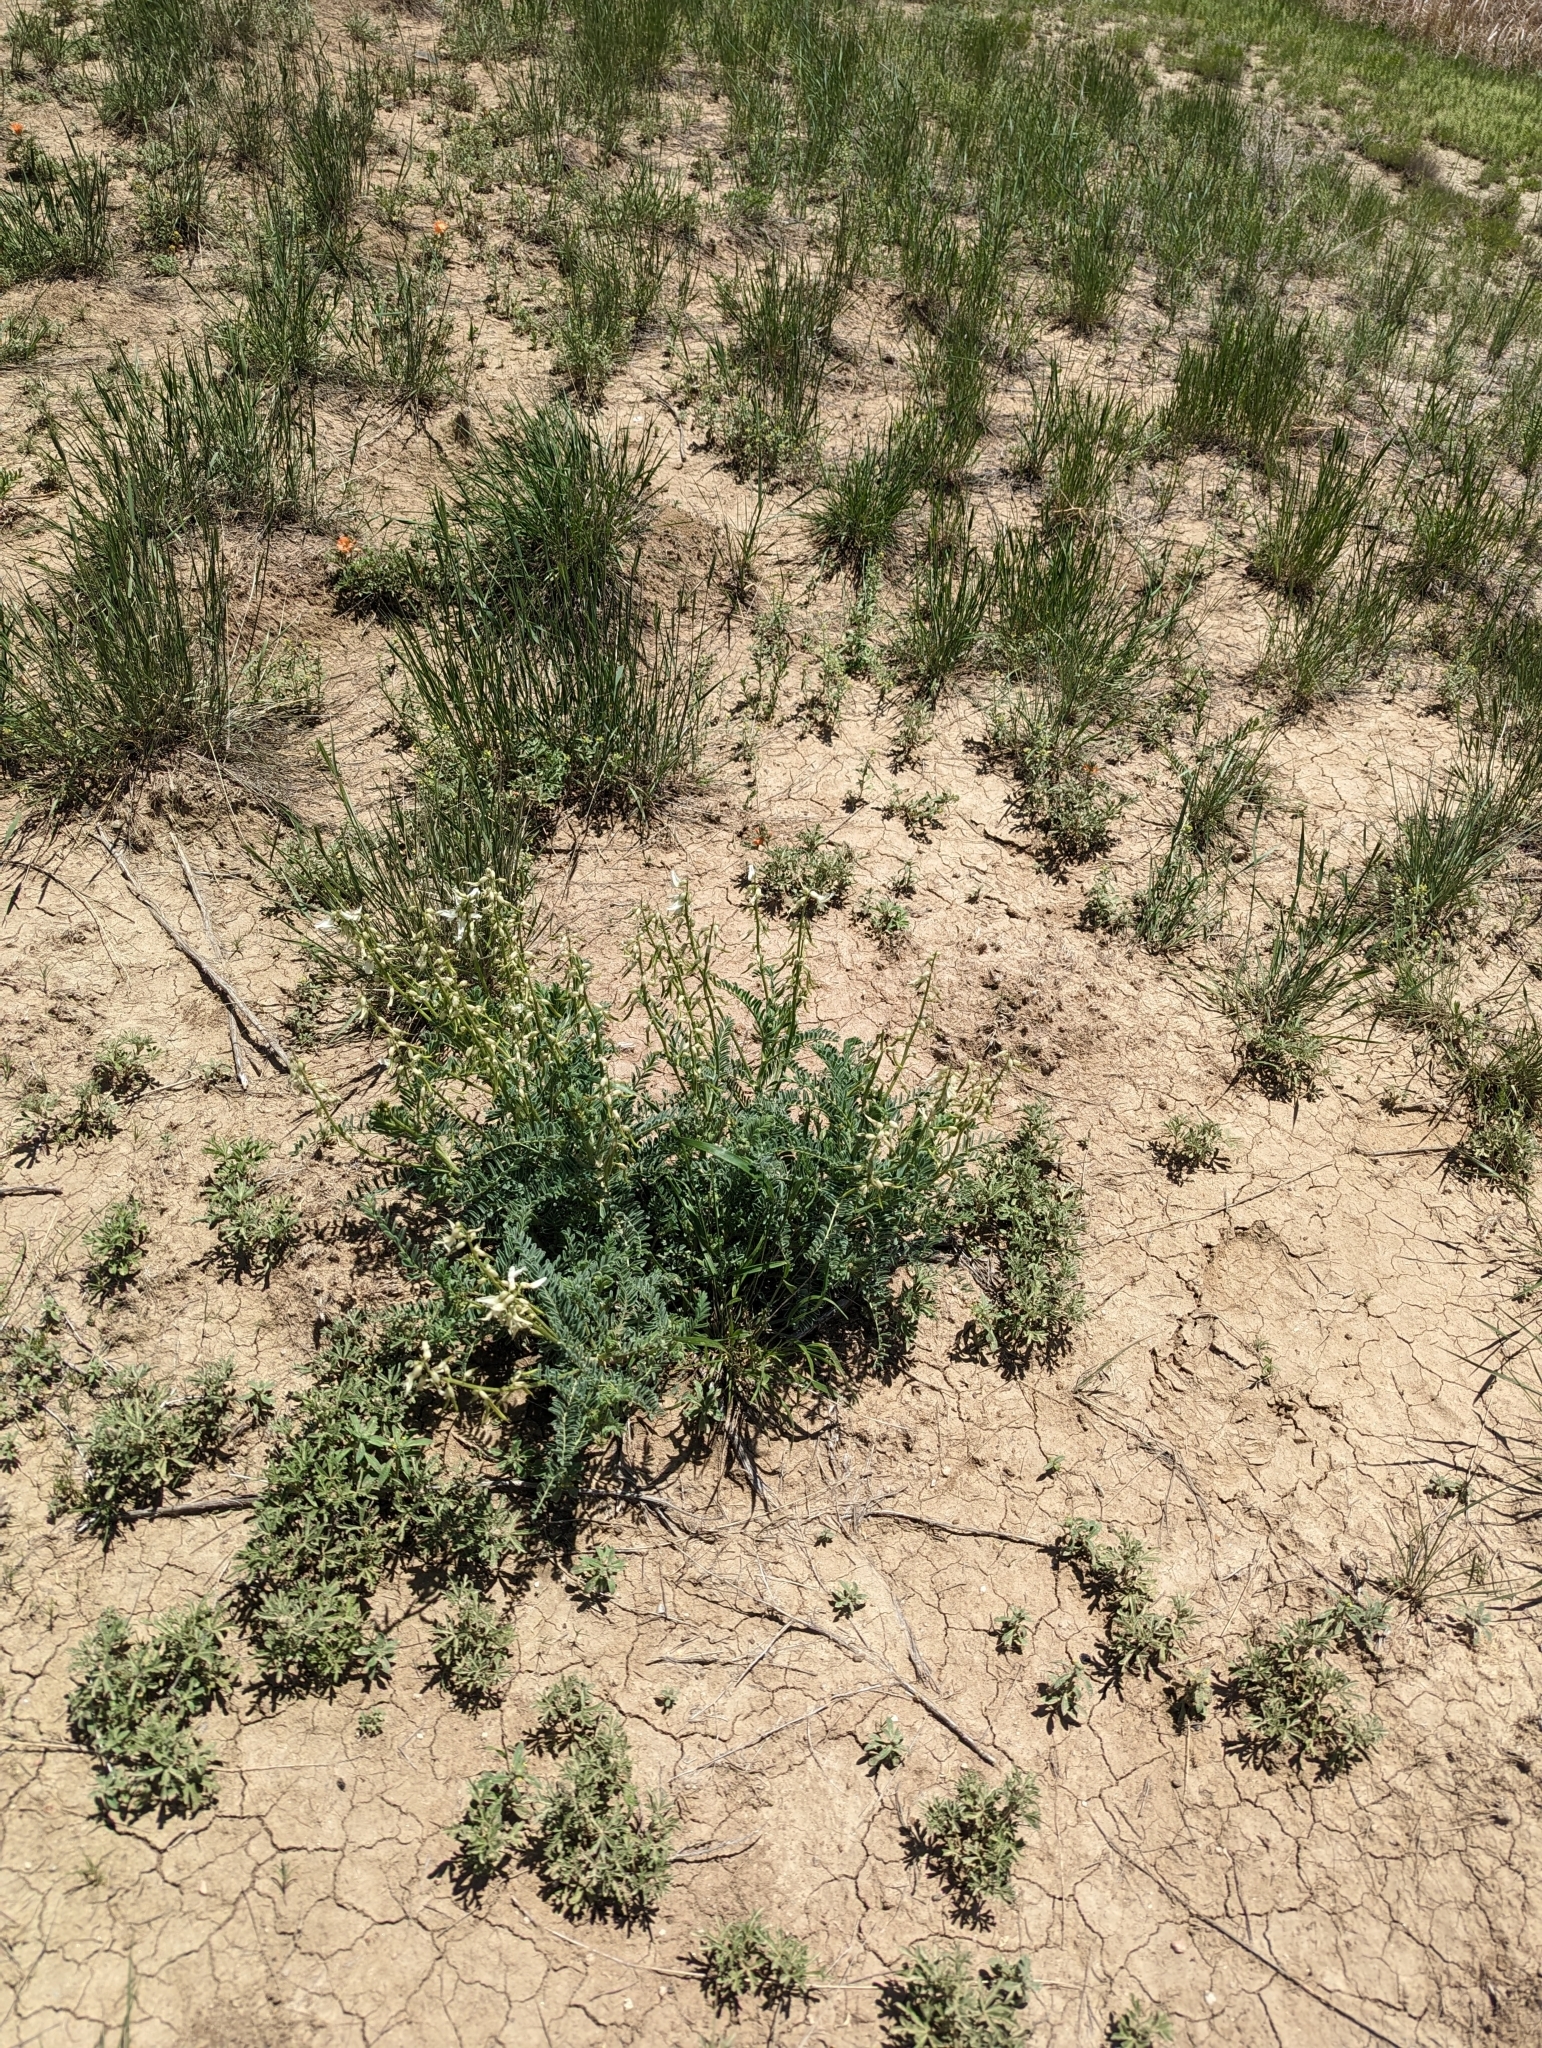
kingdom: Plantae
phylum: Tracheophyta
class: Magnoliopsida
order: Fabales
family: Fabaceae
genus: Astragalus
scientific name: Astragalus drummondii
